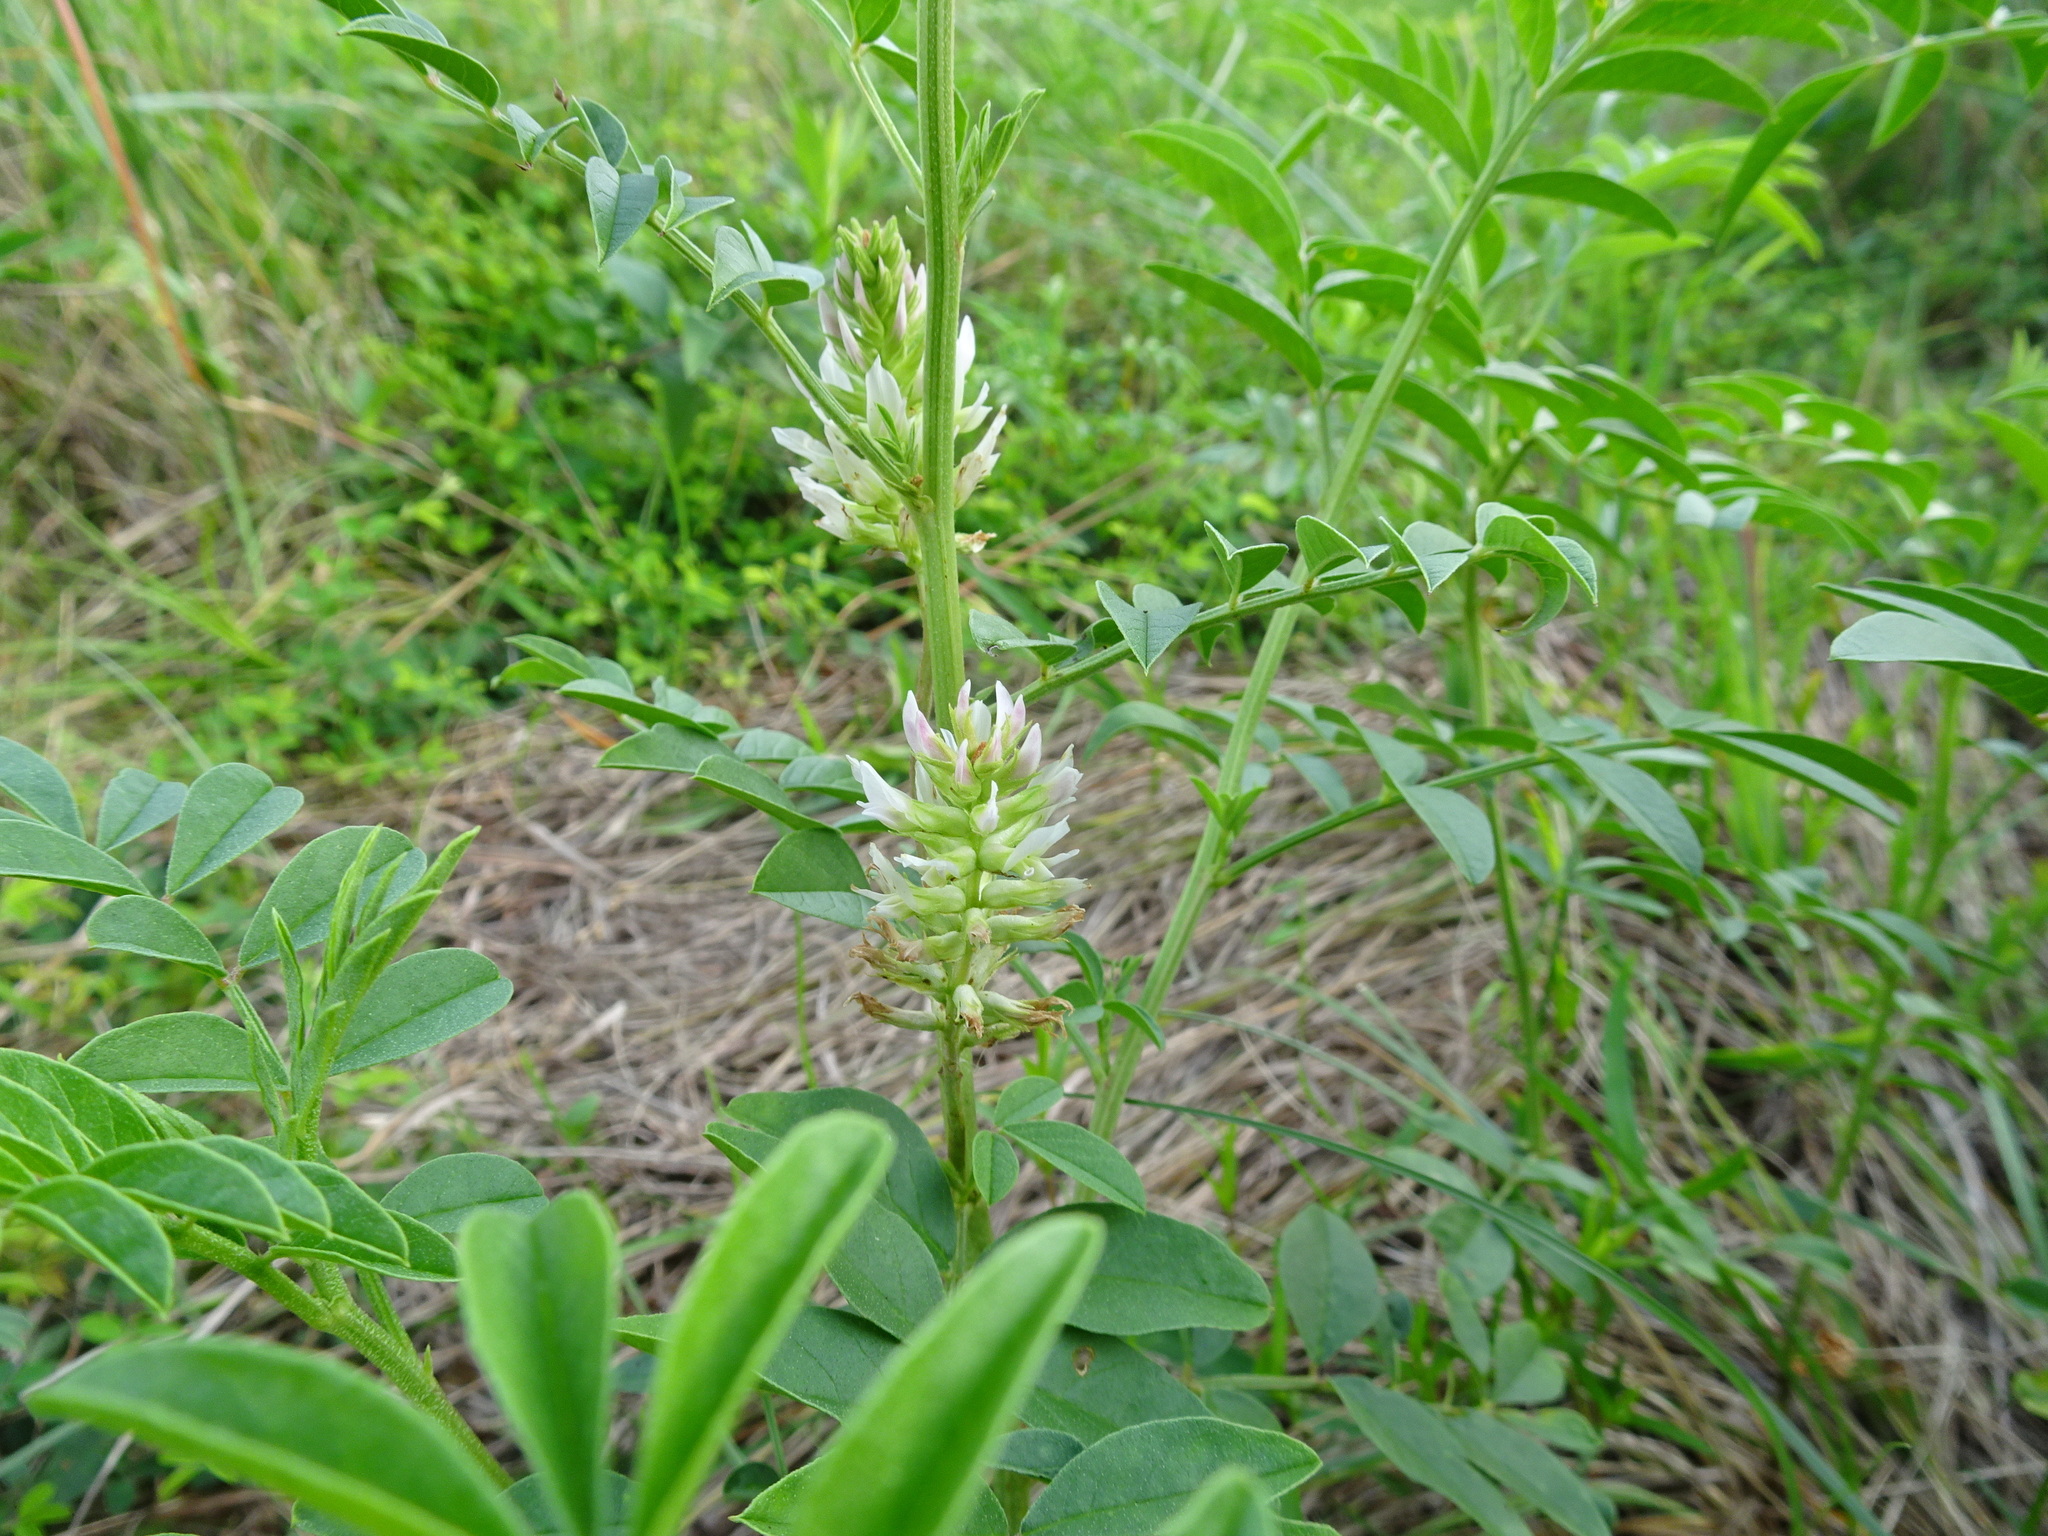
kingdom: Plantae
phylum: Tracheophyta
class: Magnoliopsida
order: Fabales
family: Fabaceae
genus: Glycyrrhiza
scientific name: Glycyrrhiza lepidota
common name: American liquorice
